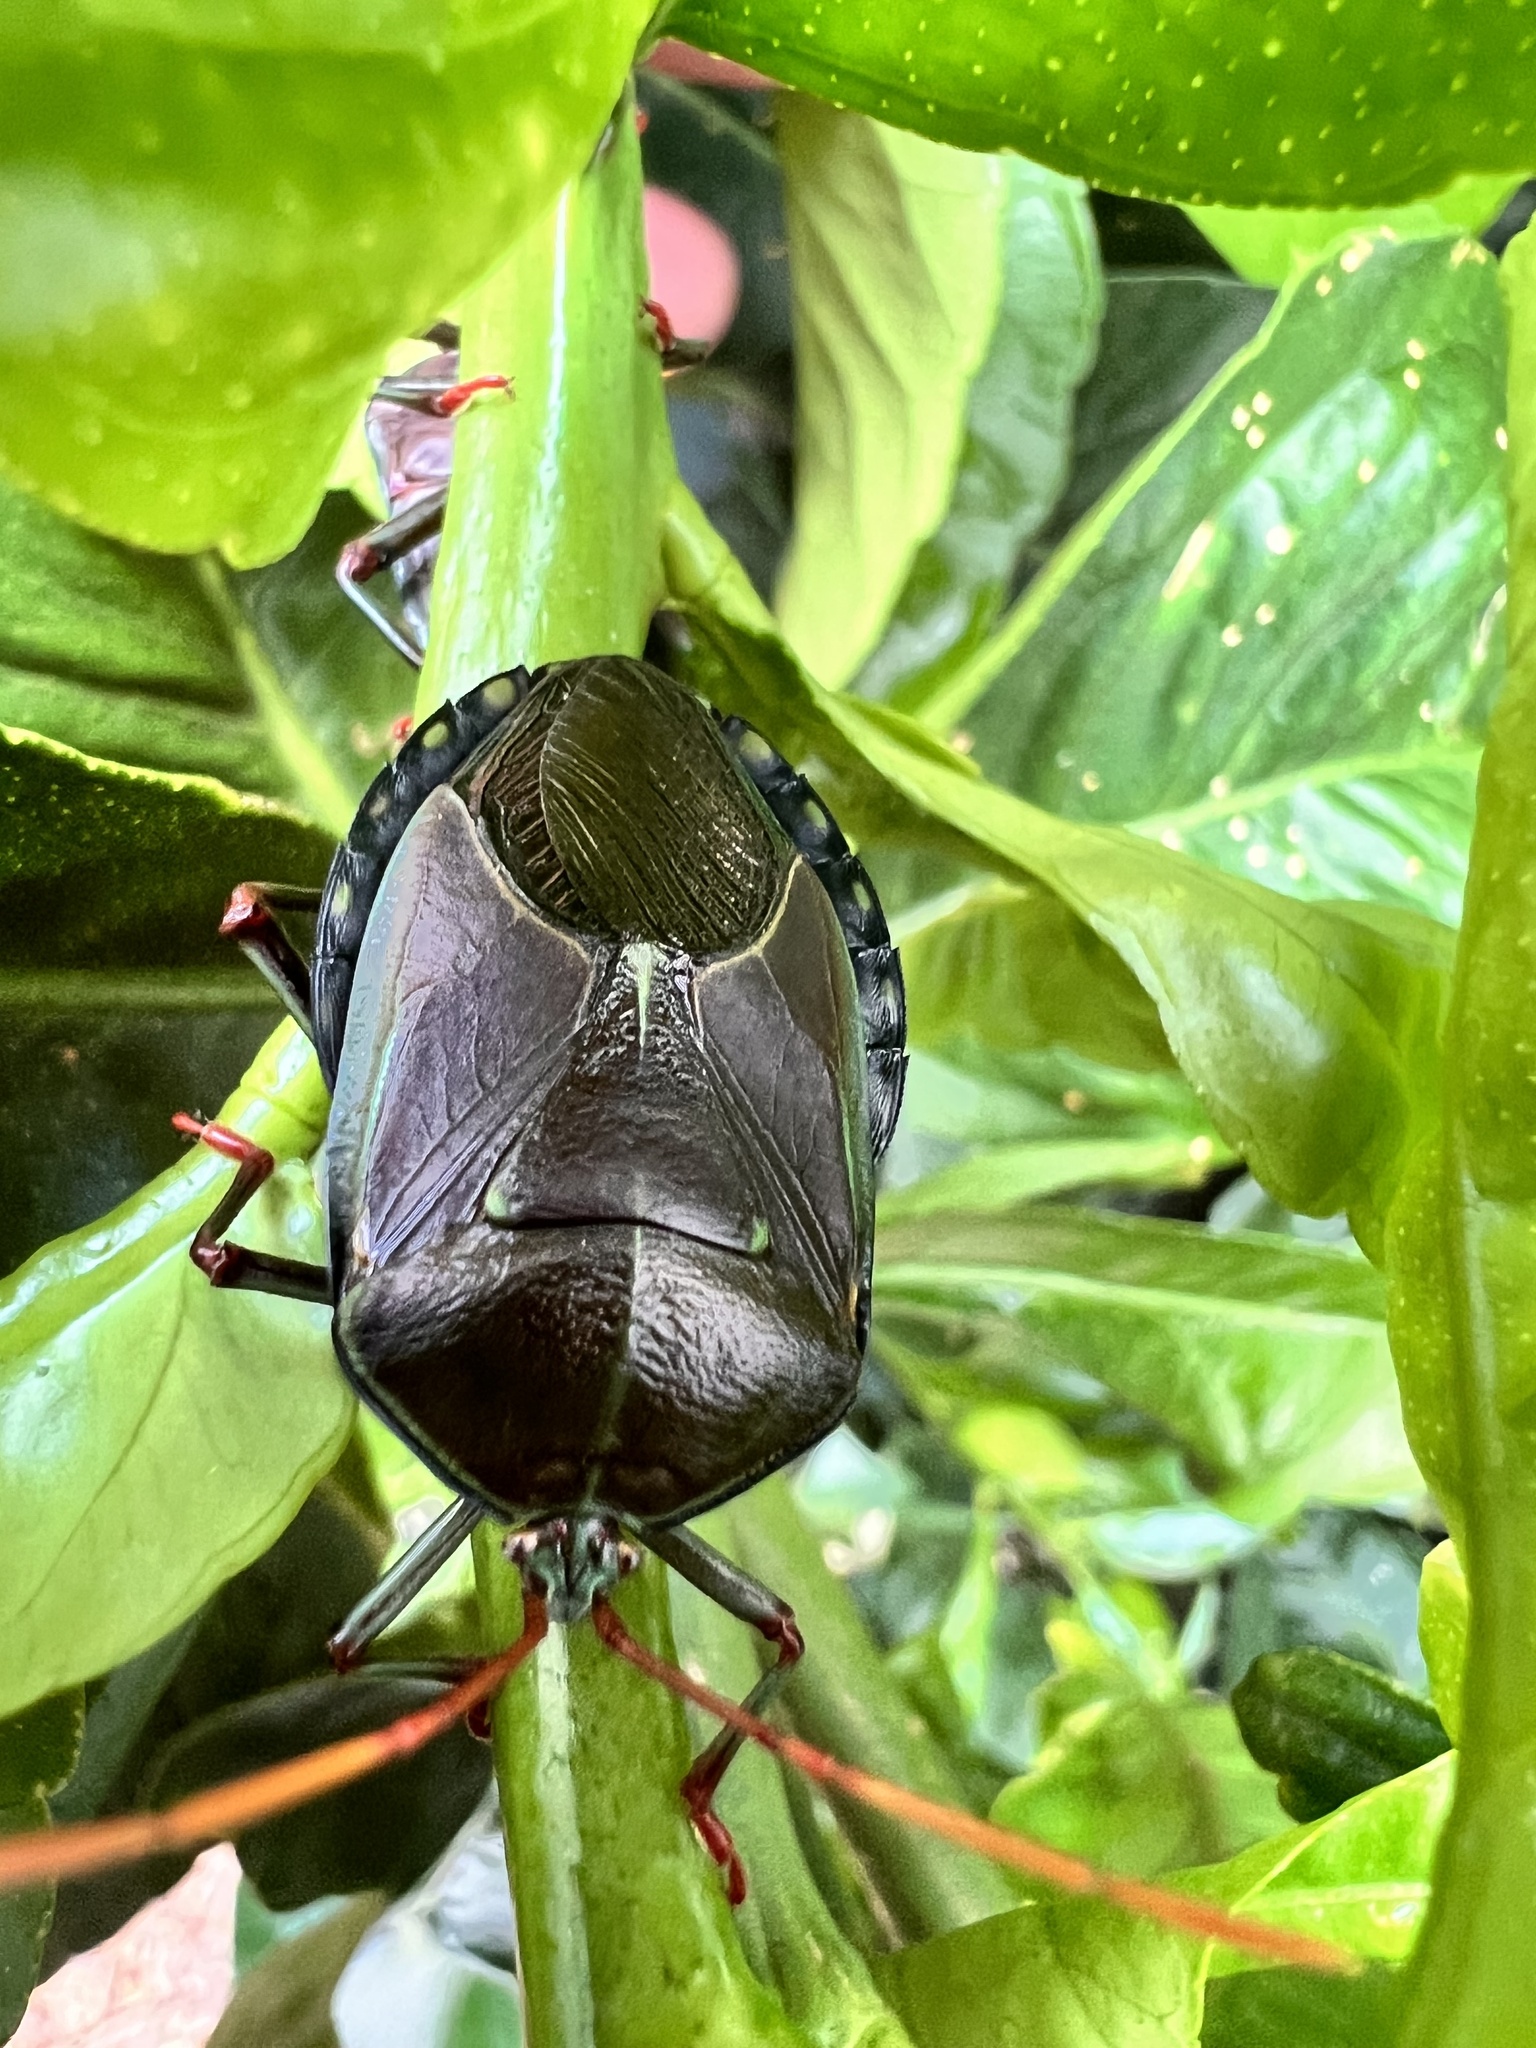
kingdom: Animalia
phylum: Arthropoda
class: Insecta
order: Hemiptera
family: Tessaratomidae
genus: Musgraveia
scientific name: Musgraveia sulciventris
